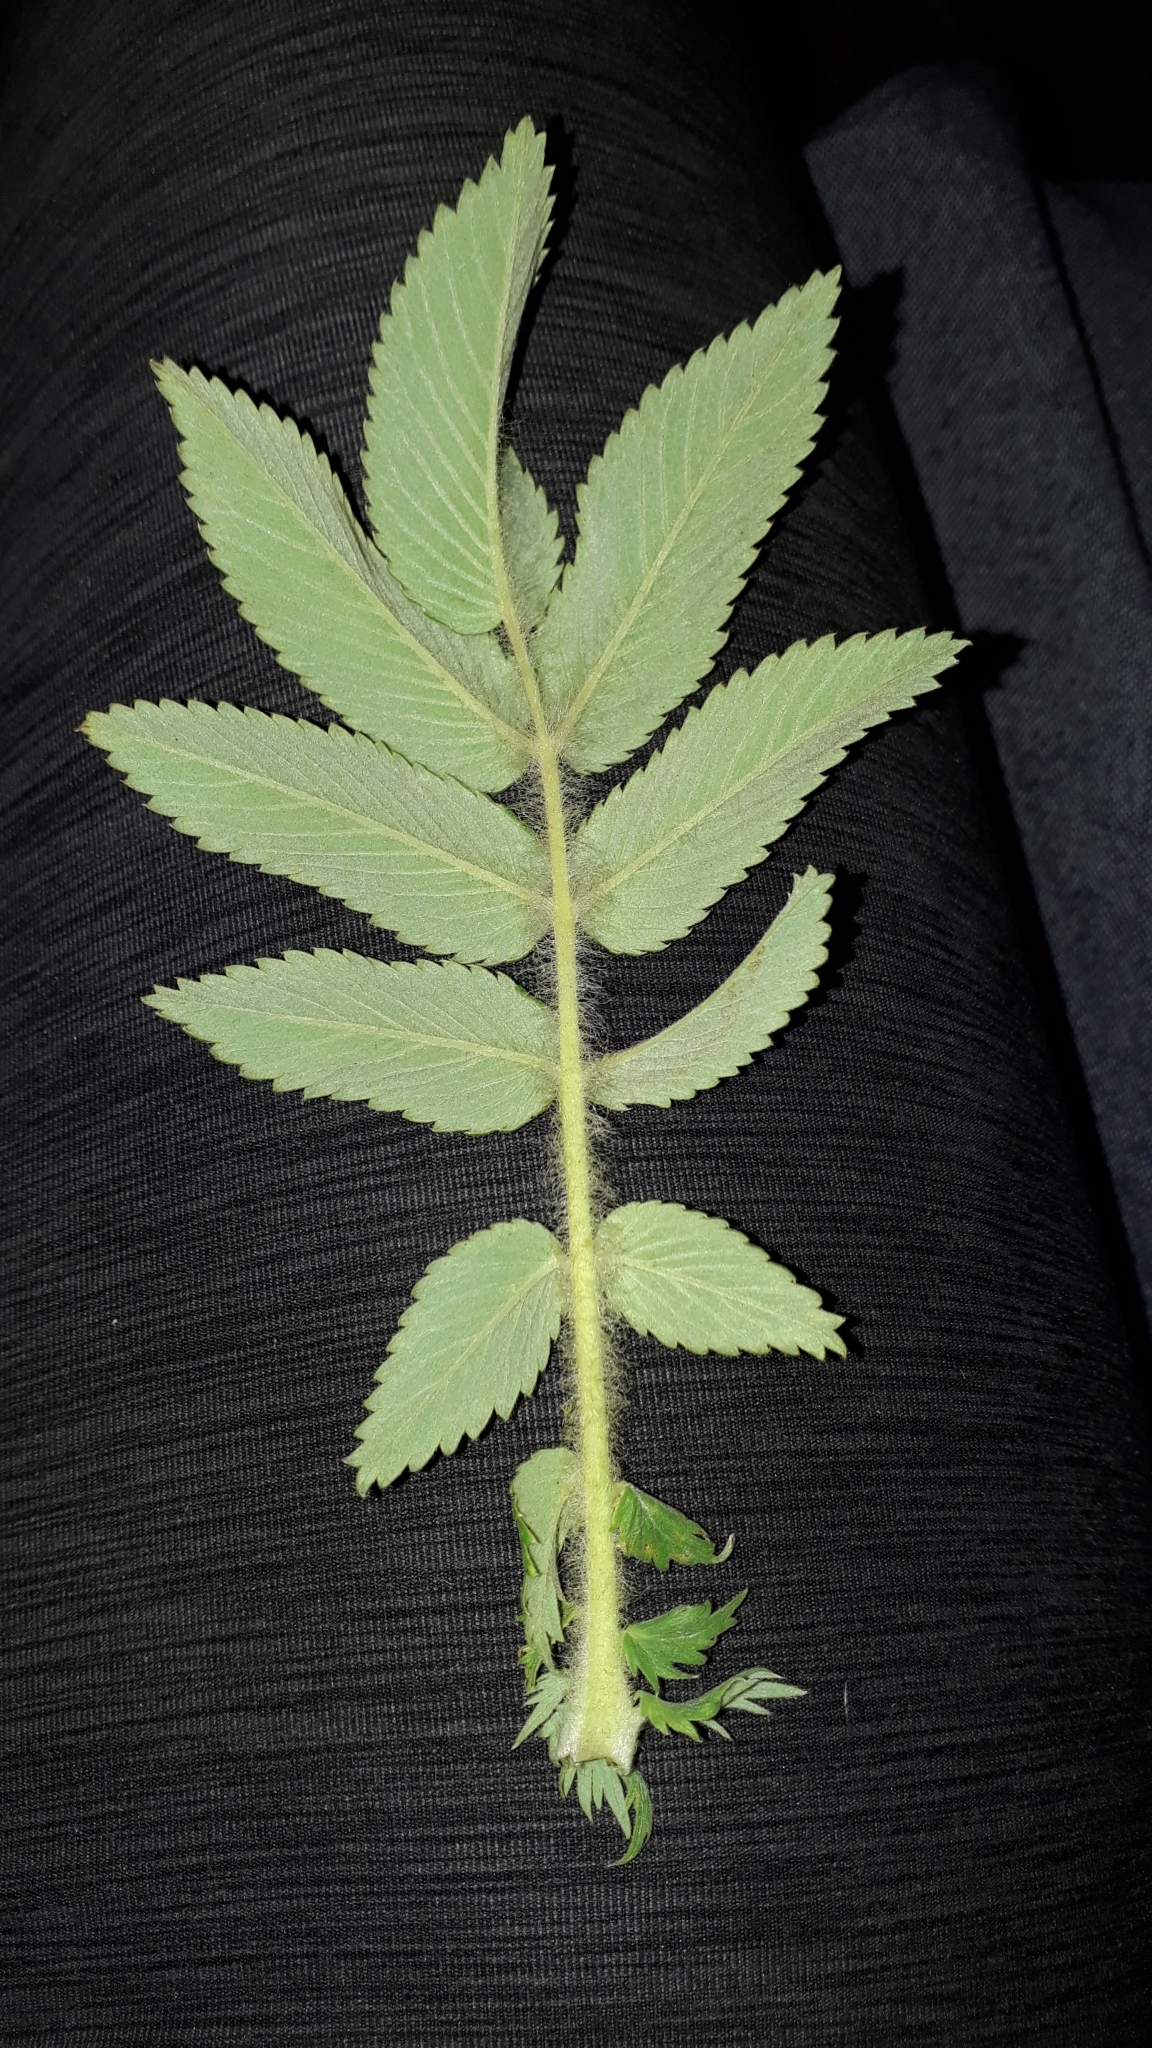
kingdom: Plantae
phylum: Tracheophyta
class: Magnoliopsida
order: Rosales
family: Rosaceae
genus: Bencomia
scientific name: Bencomia caudata
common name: Bencomia
